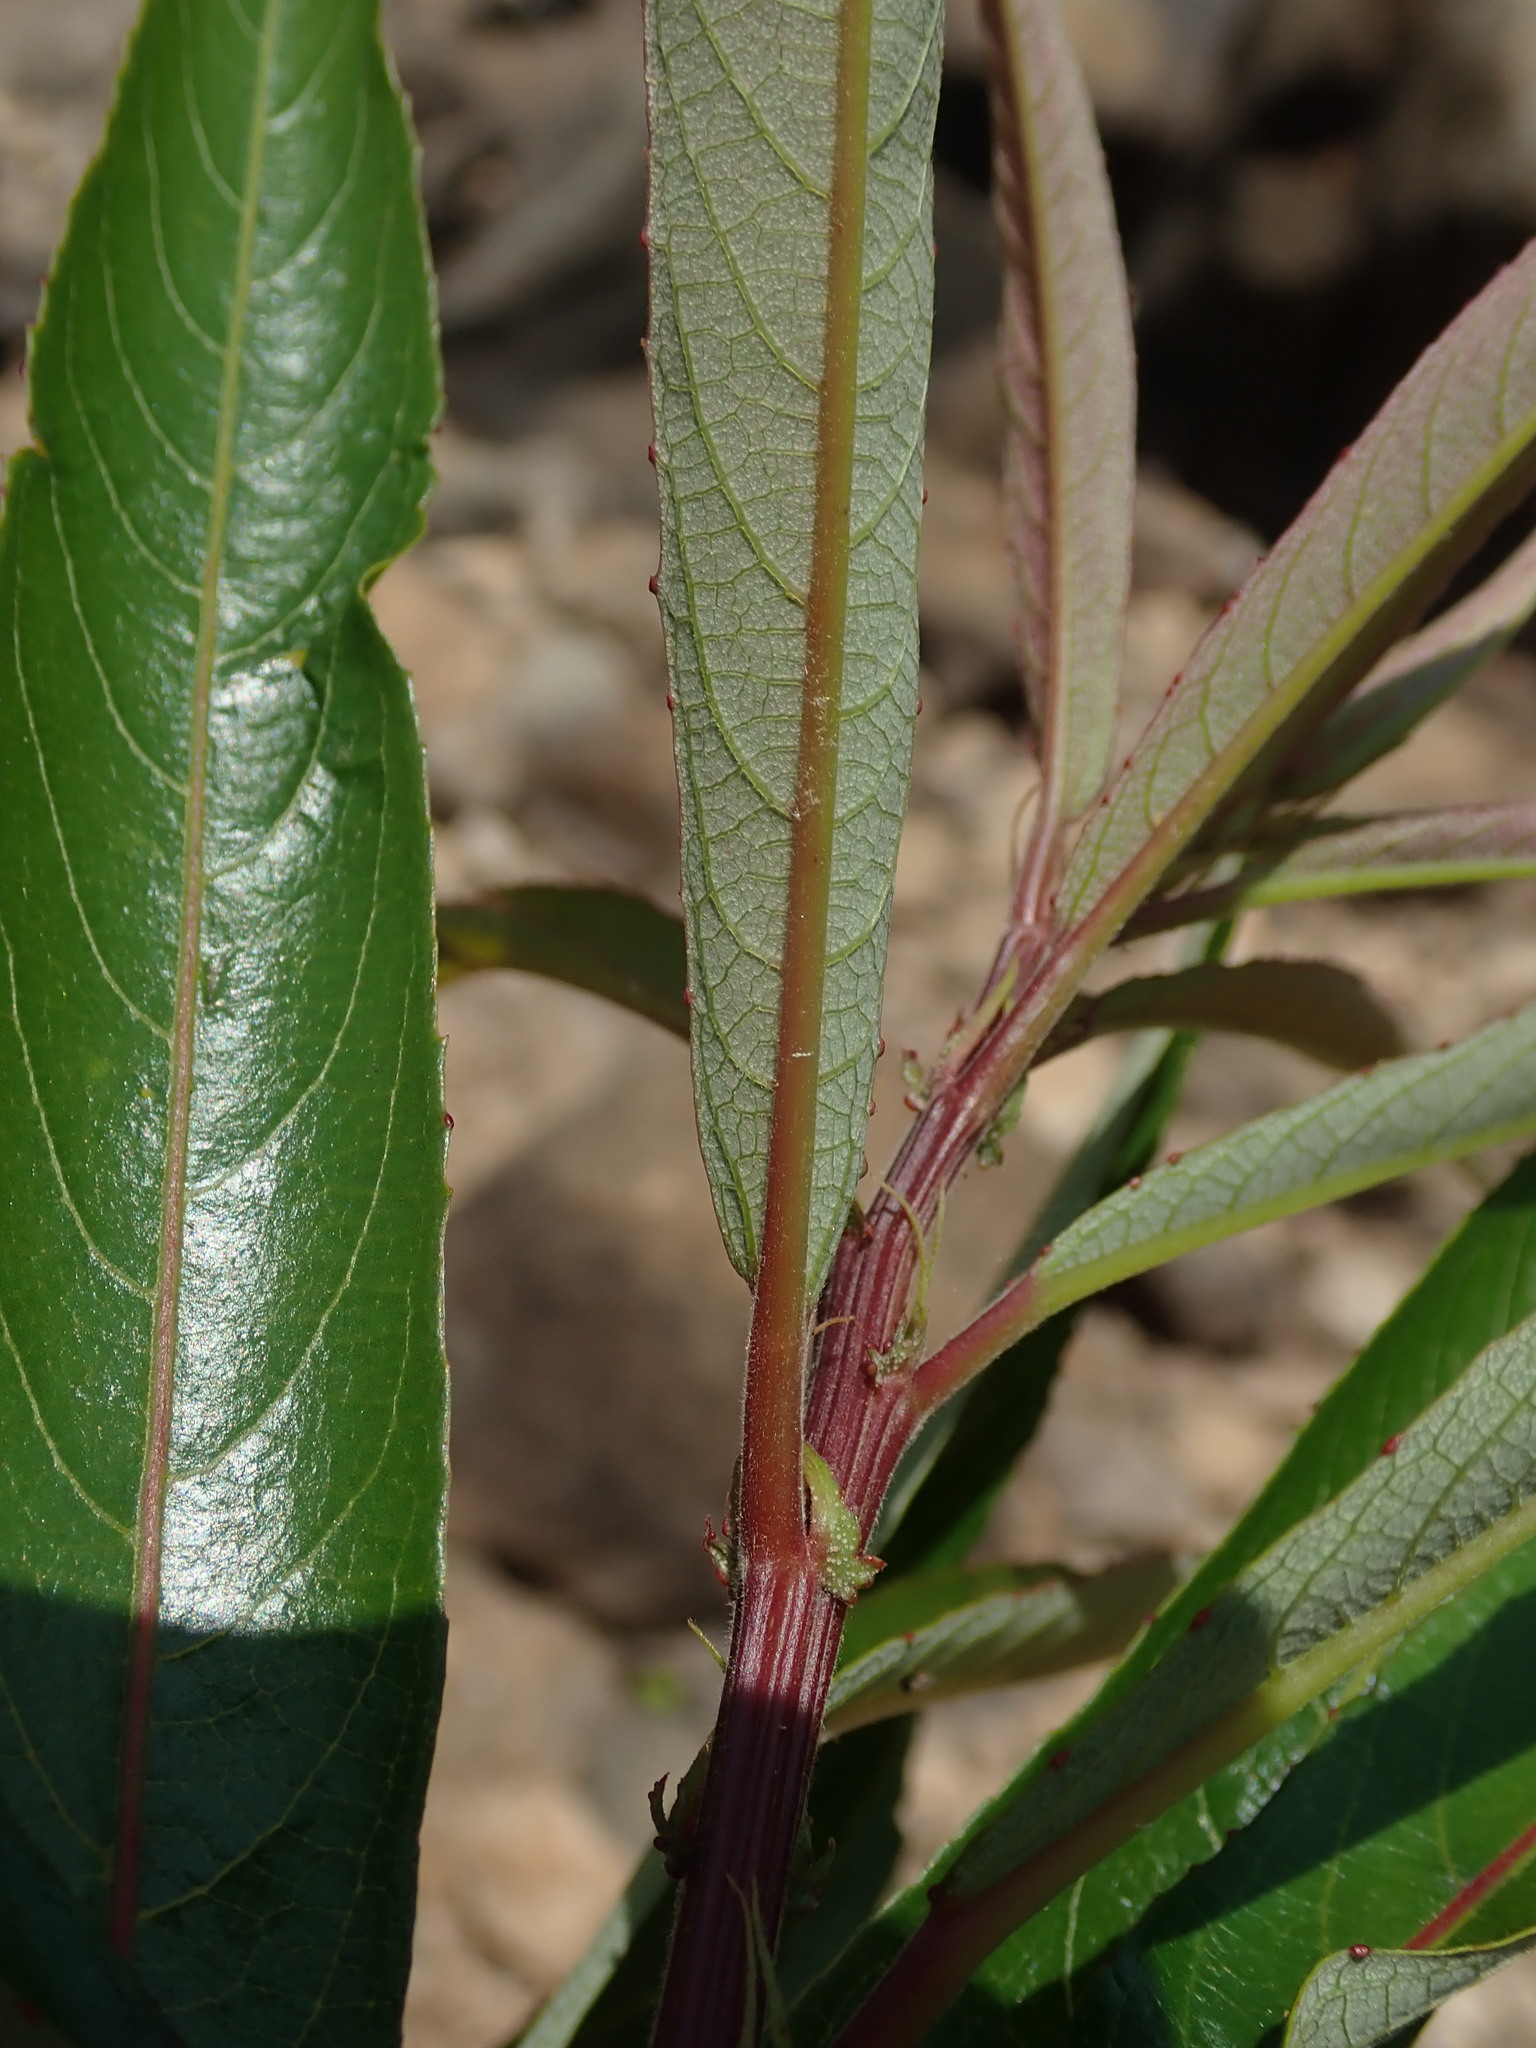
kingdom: Plantae
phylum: Tracheophyta
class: Magnoliopsida
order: Malpighiales
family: Euphorbiaceae
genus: Homonoia
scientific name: Homonoia riparia
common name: Willow-leaved water croton
